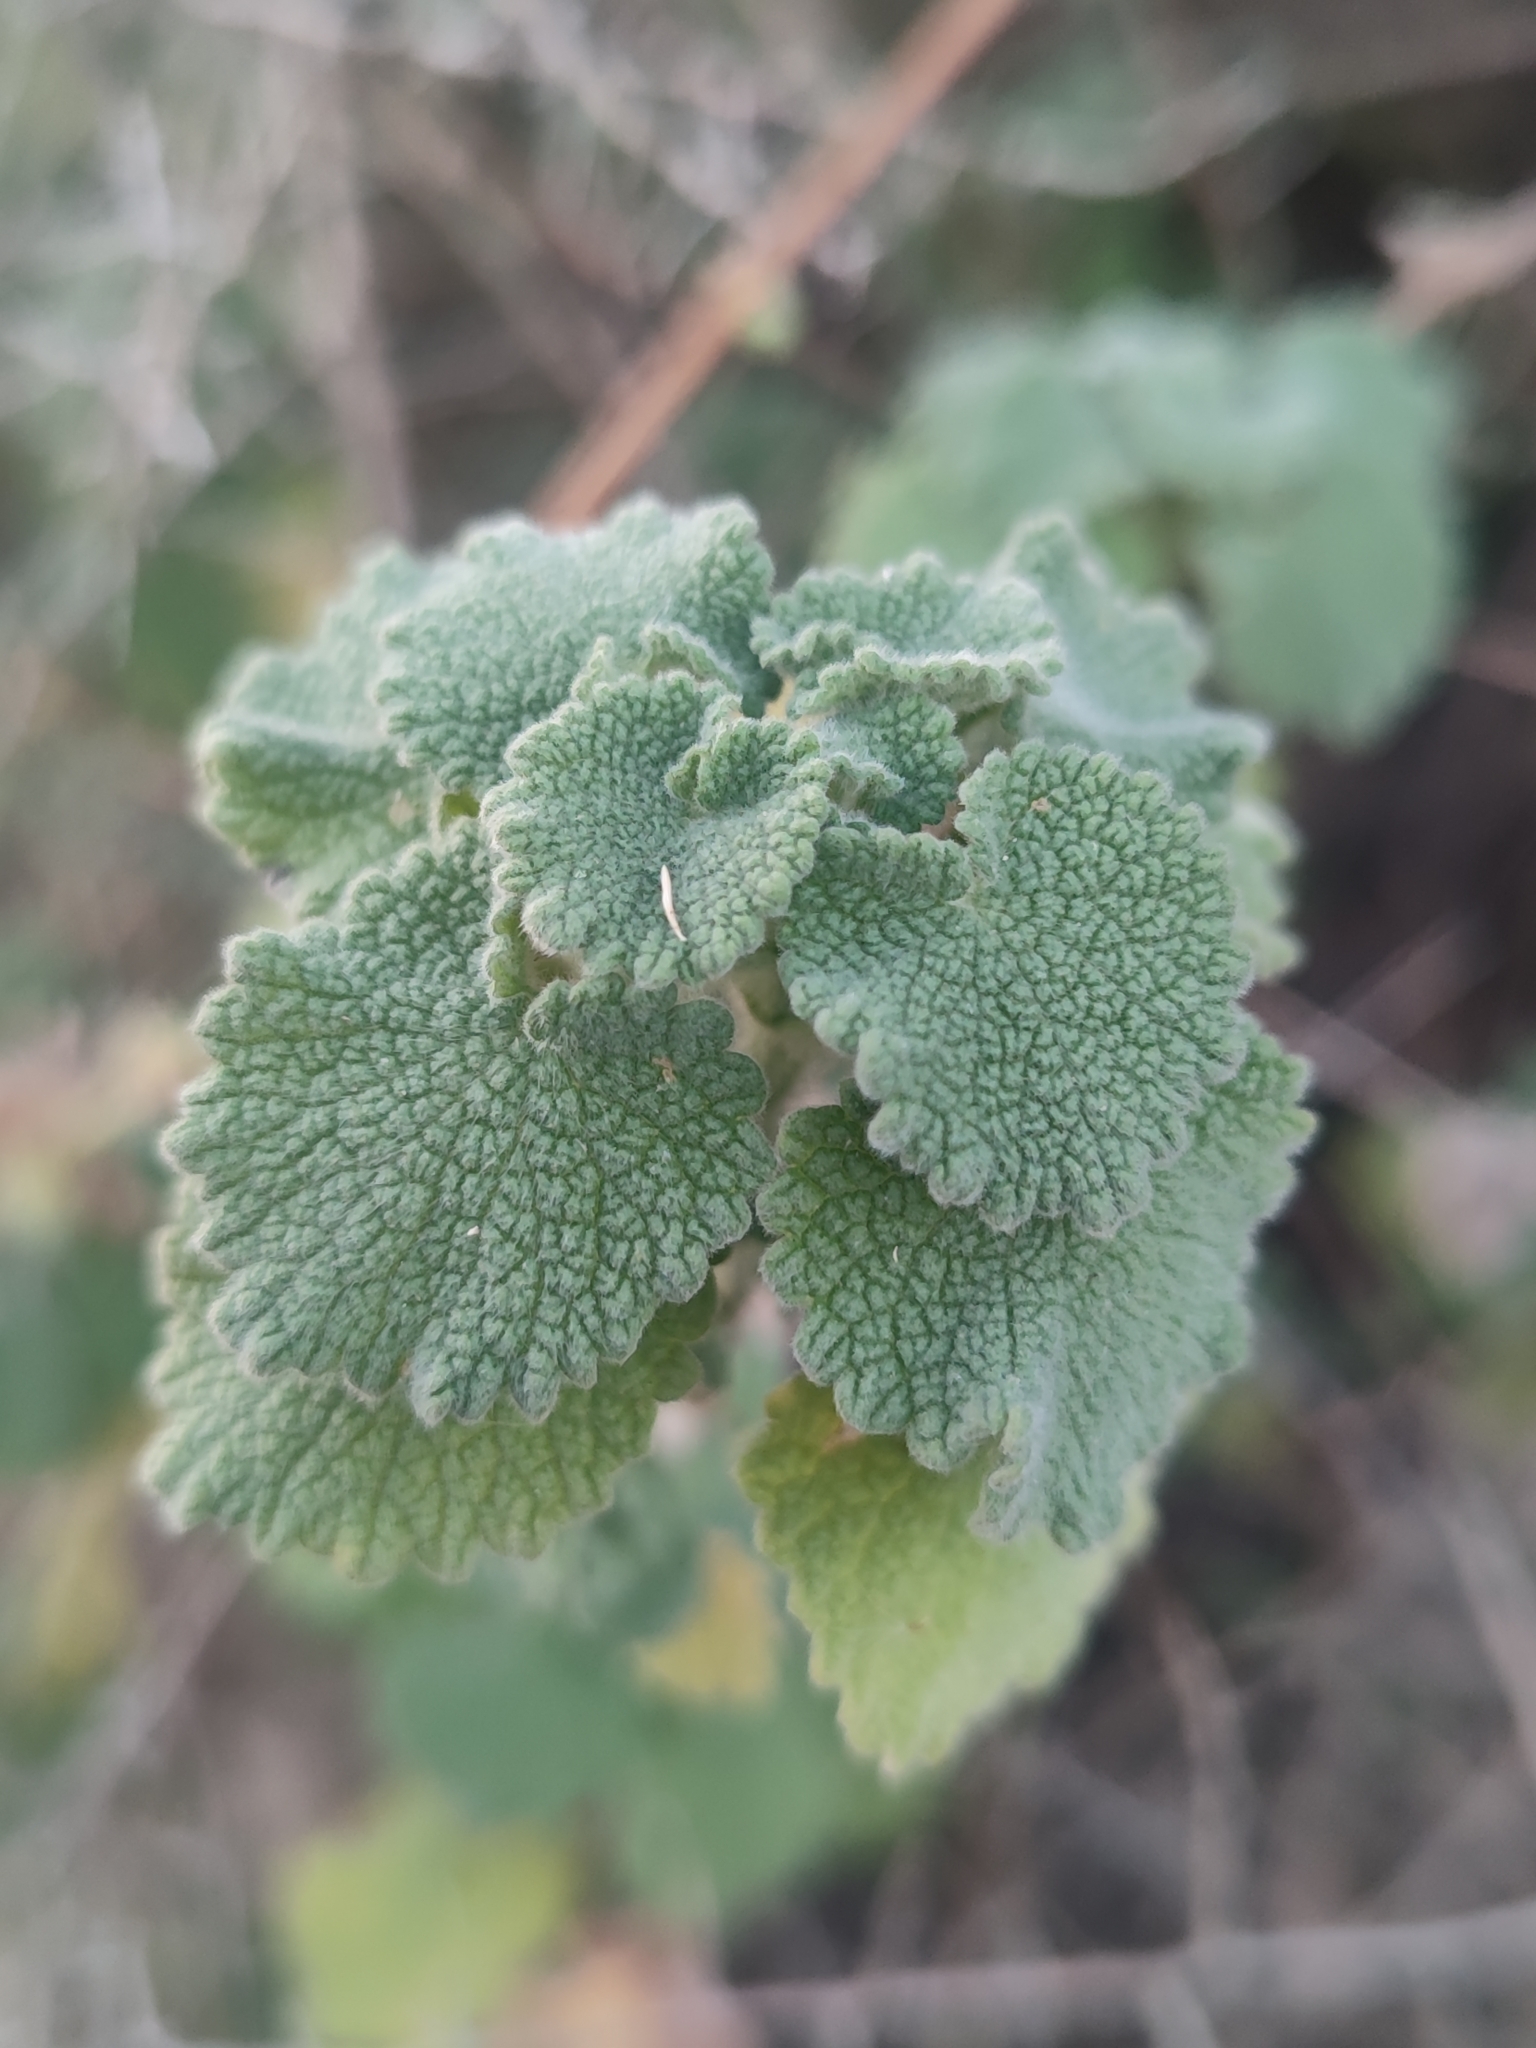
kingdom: Plantae
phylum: Tracheophyta
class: Magnoliopsida
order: Lamiales
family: Lamiaceae
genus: Pseudodictamnus
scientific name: Pseudodictamnus hirsutus
